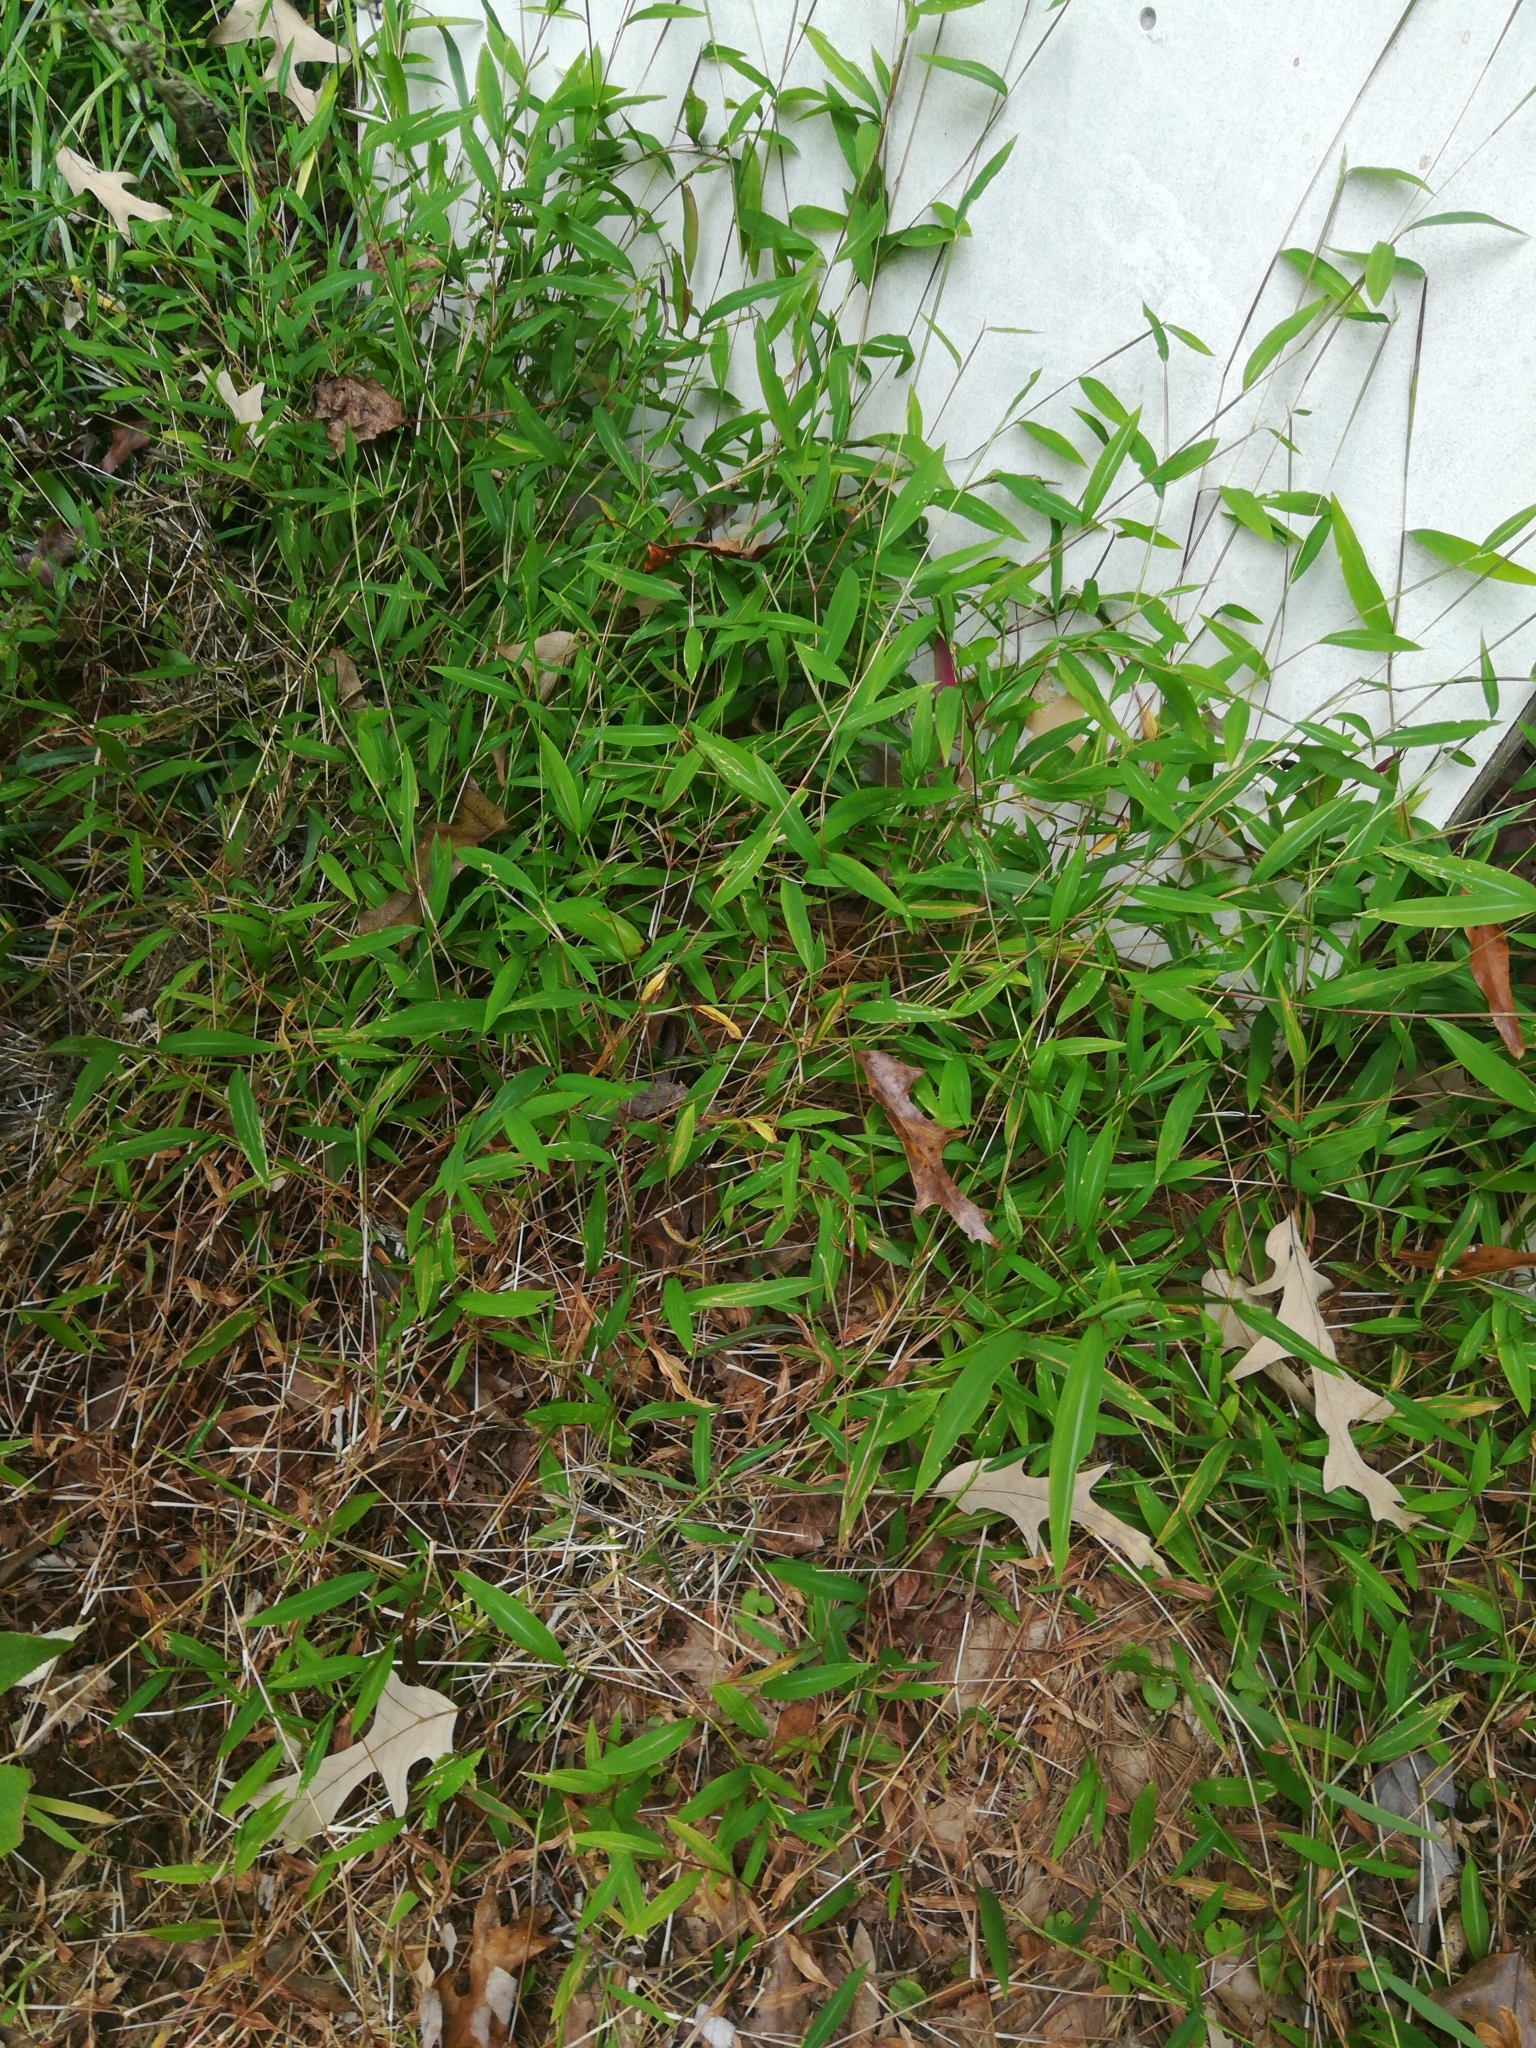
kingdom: Plantae
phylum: Tracheophyta
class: Liliopsida
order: Poales
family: Poaceae
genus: Microstegium
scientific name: Microstegium vimineum
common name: Japanese stiltgrass
